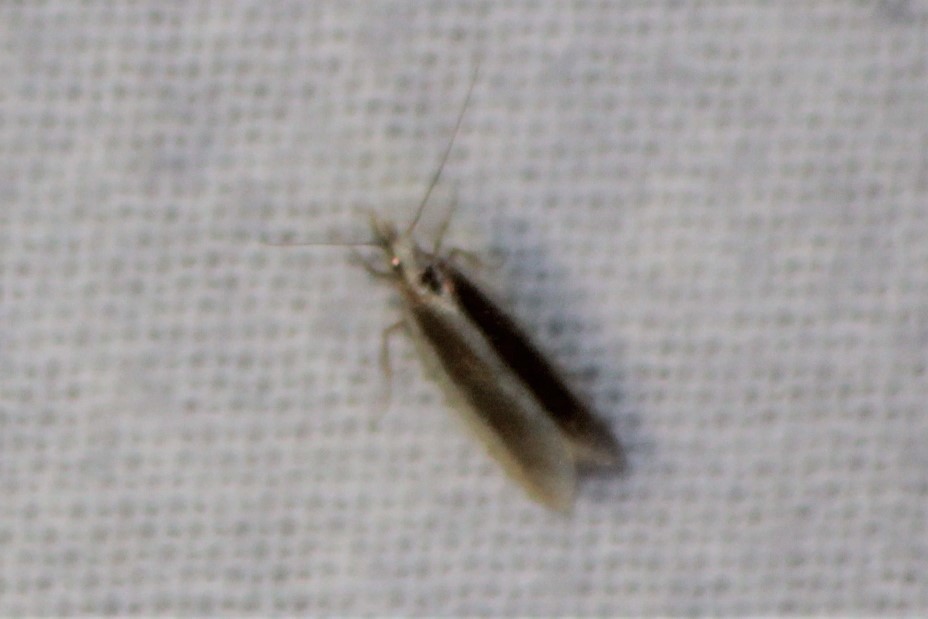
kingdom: Animalia
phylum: Arthropoda
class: Insecta
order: Lepidoptera
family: Gelechiidae
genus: Dichomeris
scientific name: Dichomeris marginella
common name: Juniper webworm
